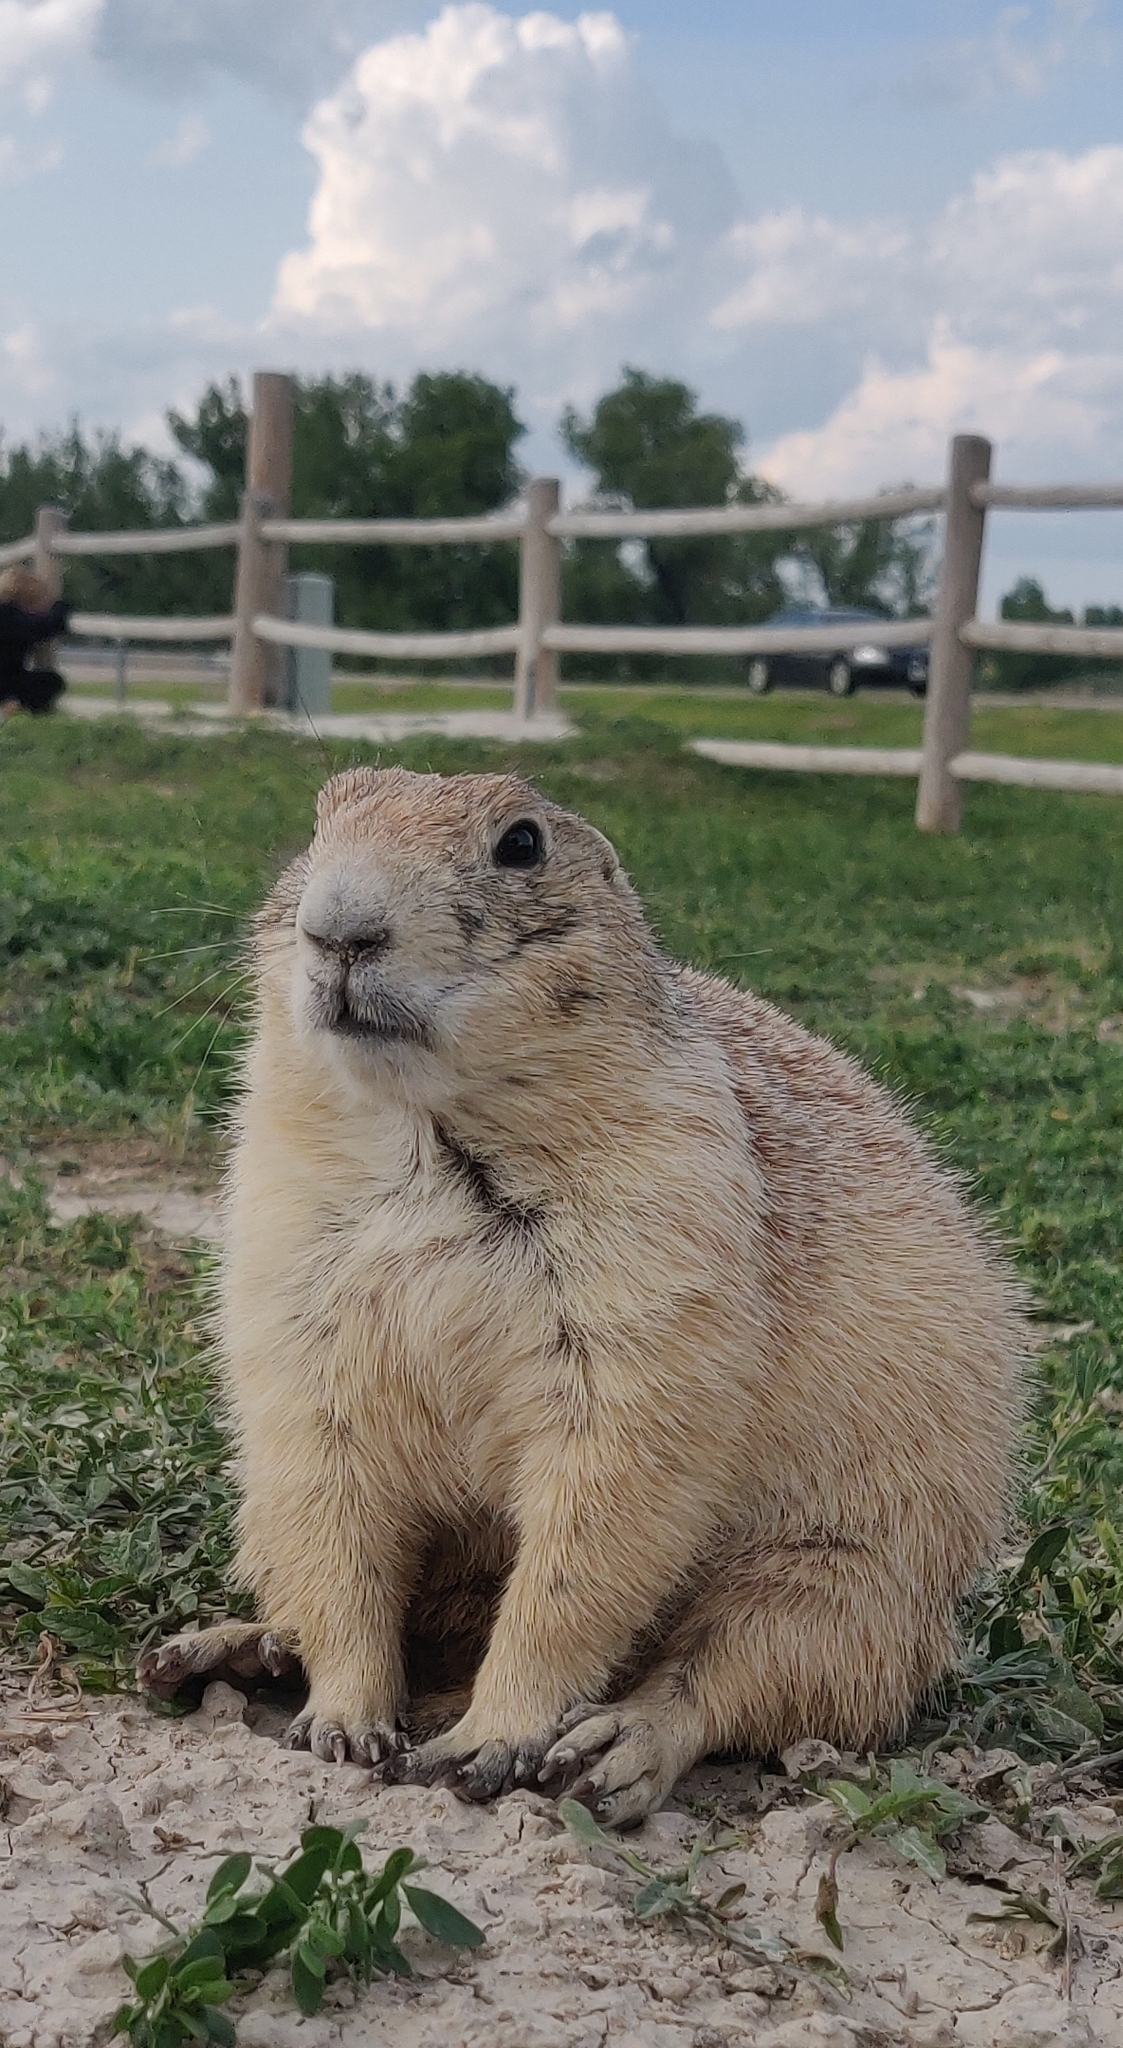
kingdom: Animalia
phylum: Chordata
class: Mammalia
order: Rodentia
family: Sciuridae
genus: Cynomys
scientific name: Cynomys ludovicianus
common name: Black-tailed prairie dog
